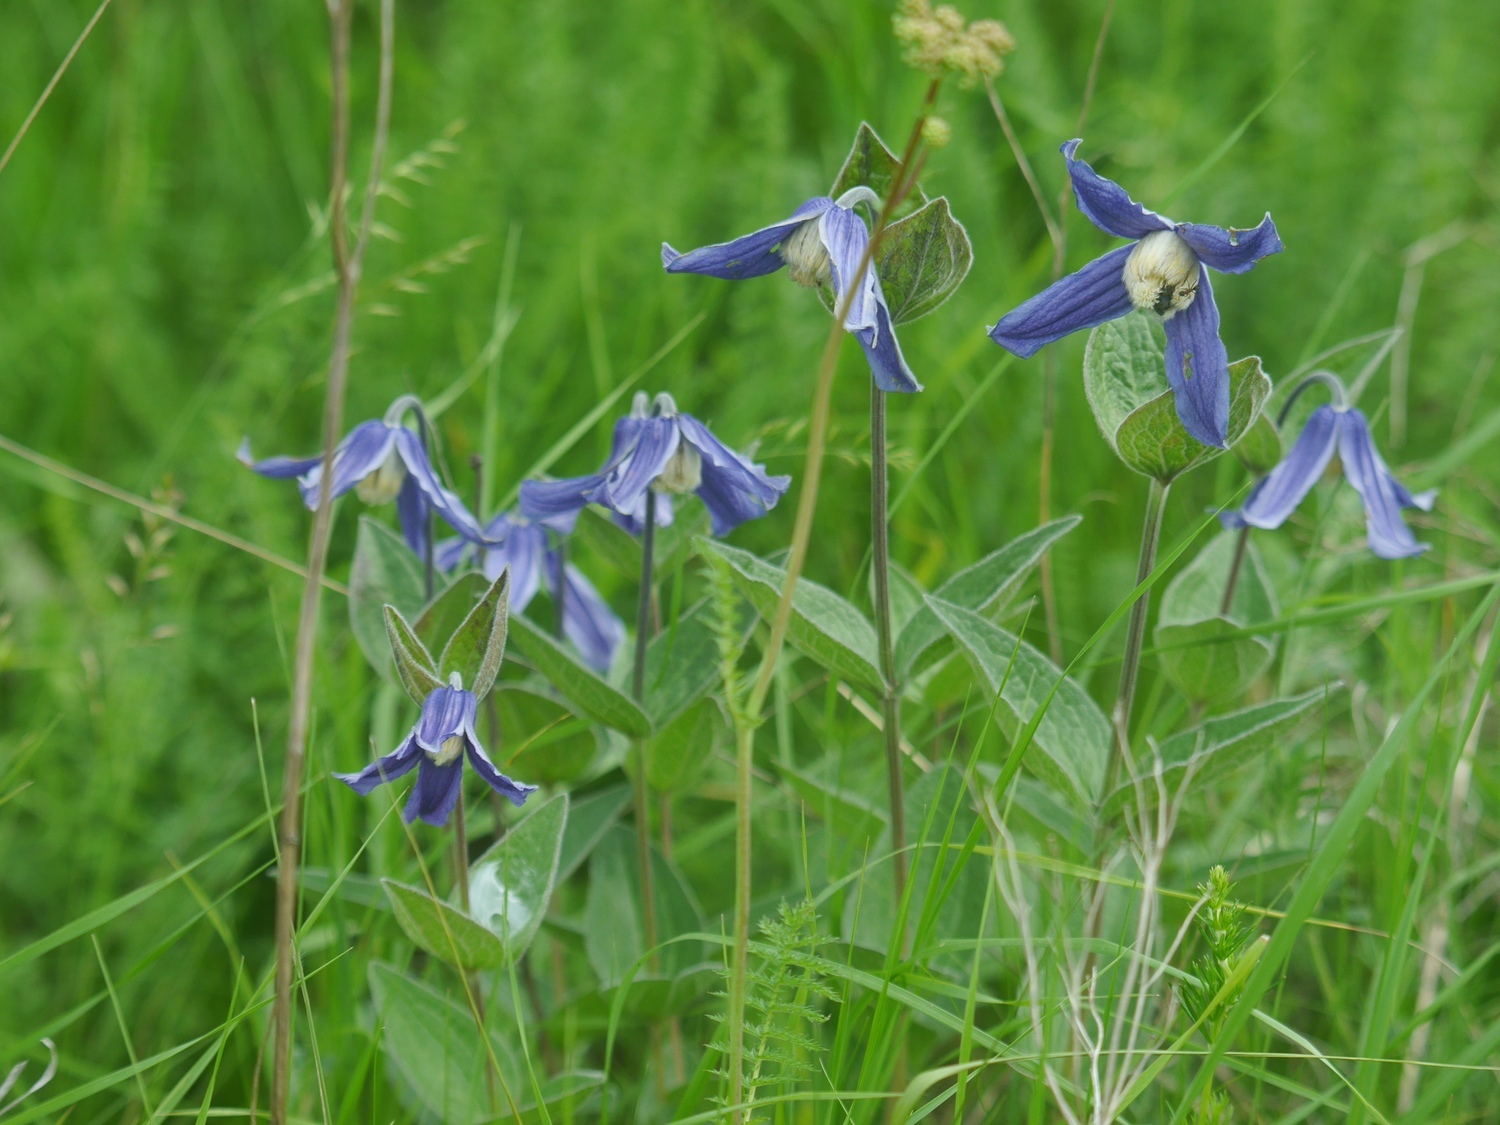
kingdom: Plantae
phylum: Tracheophyta
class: Magnoliopsida
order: Ranunculales
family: Ranunculaceae
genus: Clematis
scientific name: Clematis integrifolia
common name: Solitary clematis
